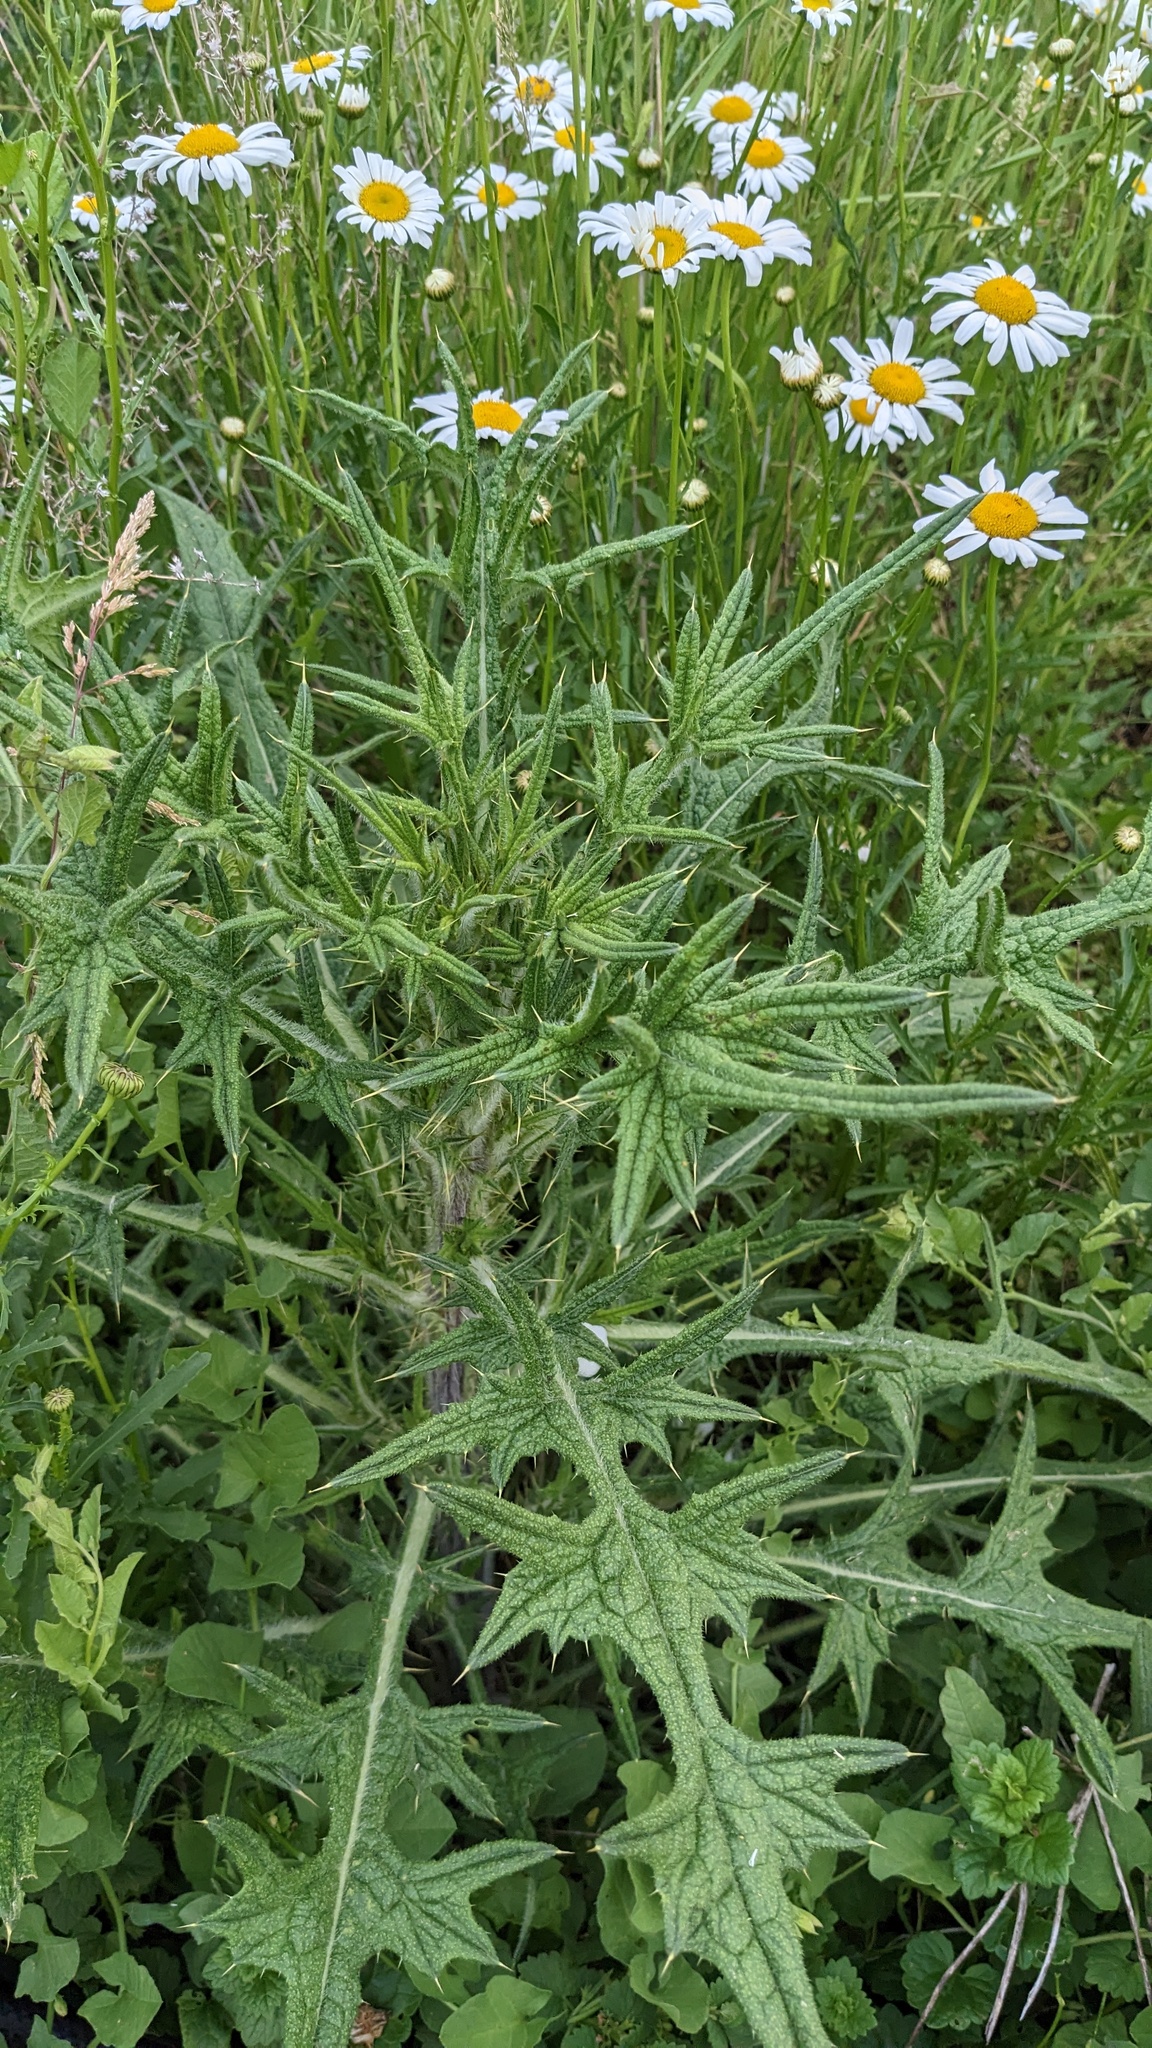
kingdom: Plantae
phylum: Tracheophyta
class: Magnoliopsida
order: Asterales
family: Asteraceae
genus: Cirsium
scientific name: Cirsium vulgare
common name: Bull thistle
